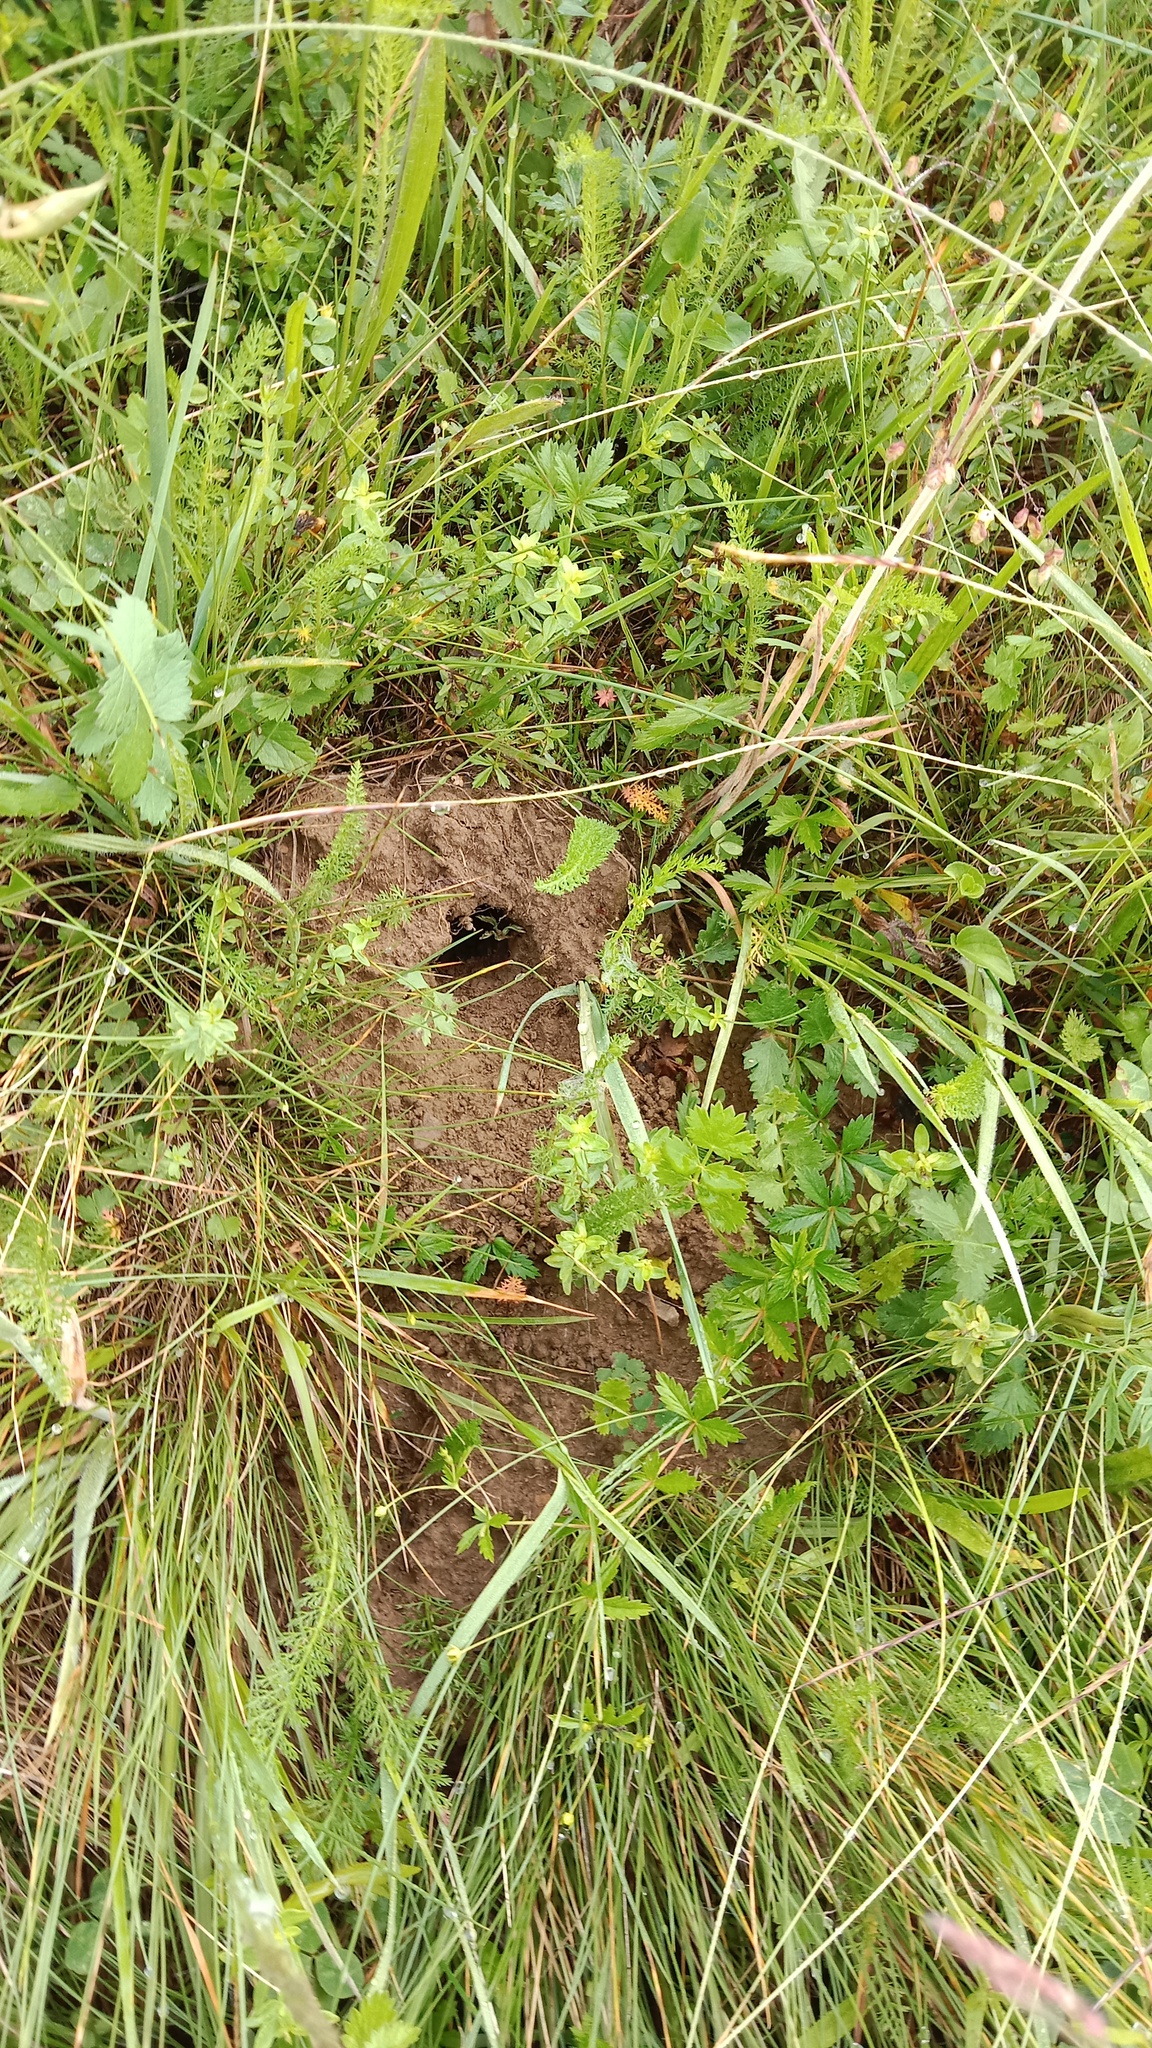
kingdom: Animalia
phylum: Chordata
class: Mammalia
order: Soricomorpha
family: Talpidae
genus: Talpa
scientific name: Talpa europaea
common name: European mole
